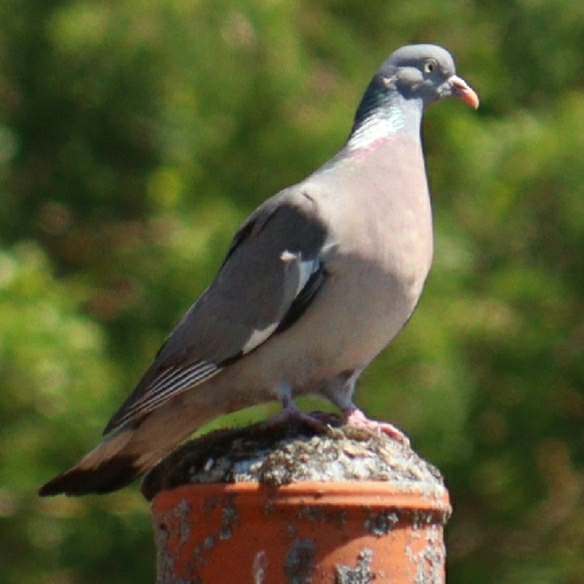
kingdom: Animalia
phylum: Chordata
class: Aves
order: Columbiformes
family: Columbidae
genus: Columba
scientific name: Columba palumbus
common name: Common wood pigeon
